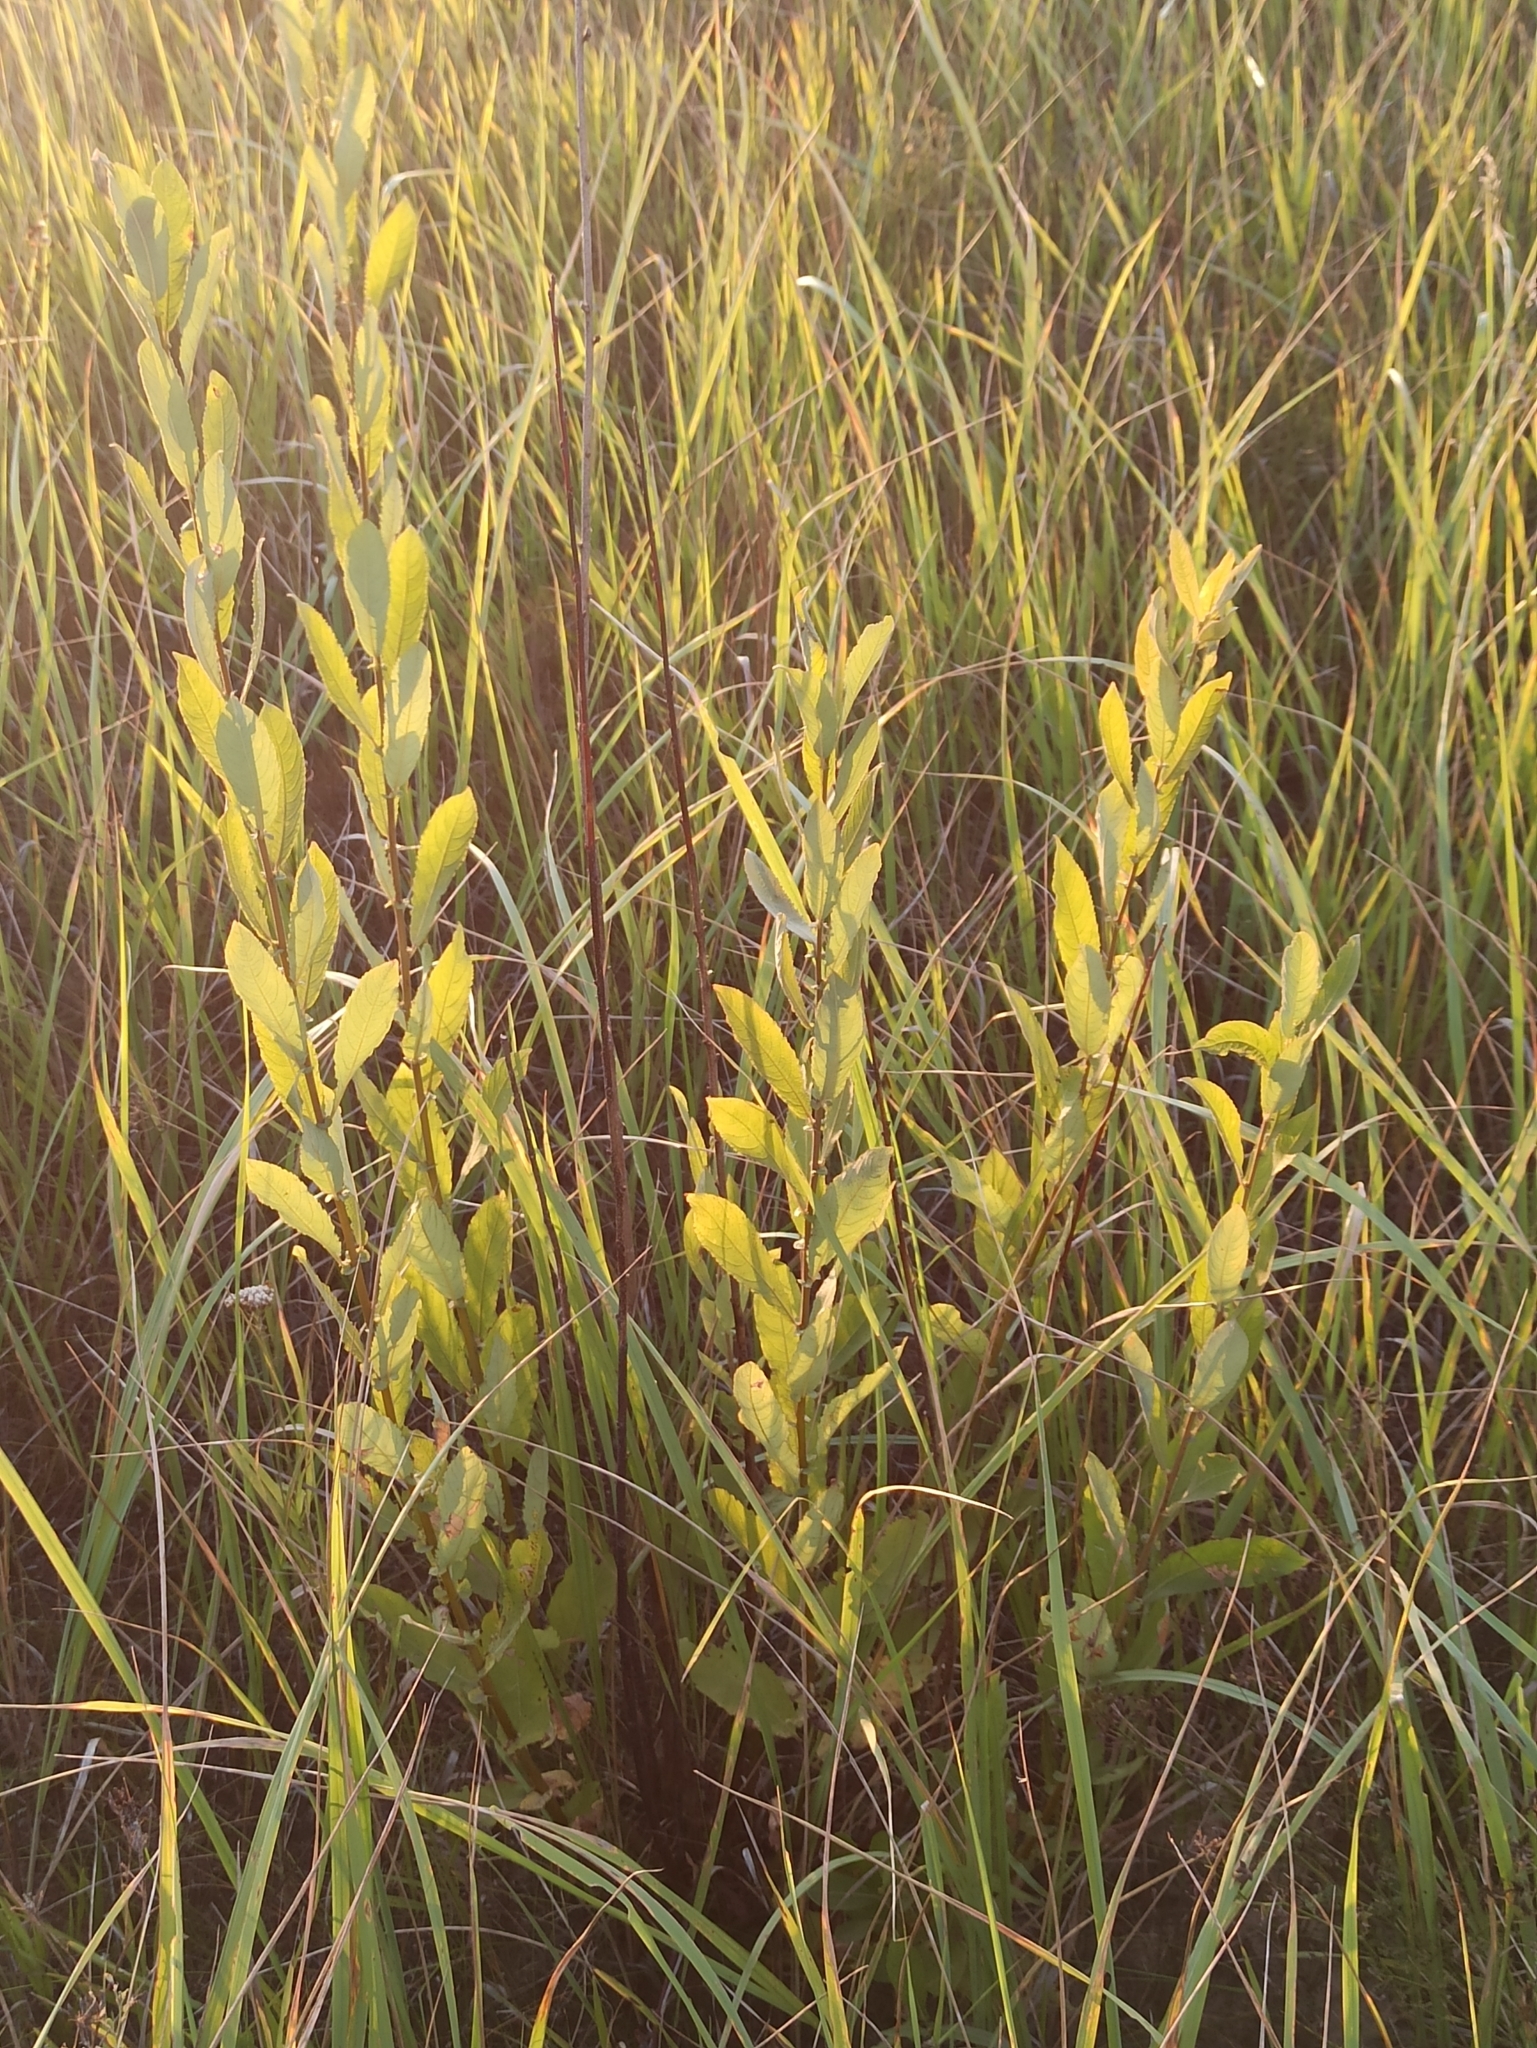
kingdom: Plantae
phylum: Tracheophyta
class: Magnoliopsida
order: Malpighiales
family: Salicaceae
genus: Salix
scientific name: Salix aurita
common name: Eared willow
